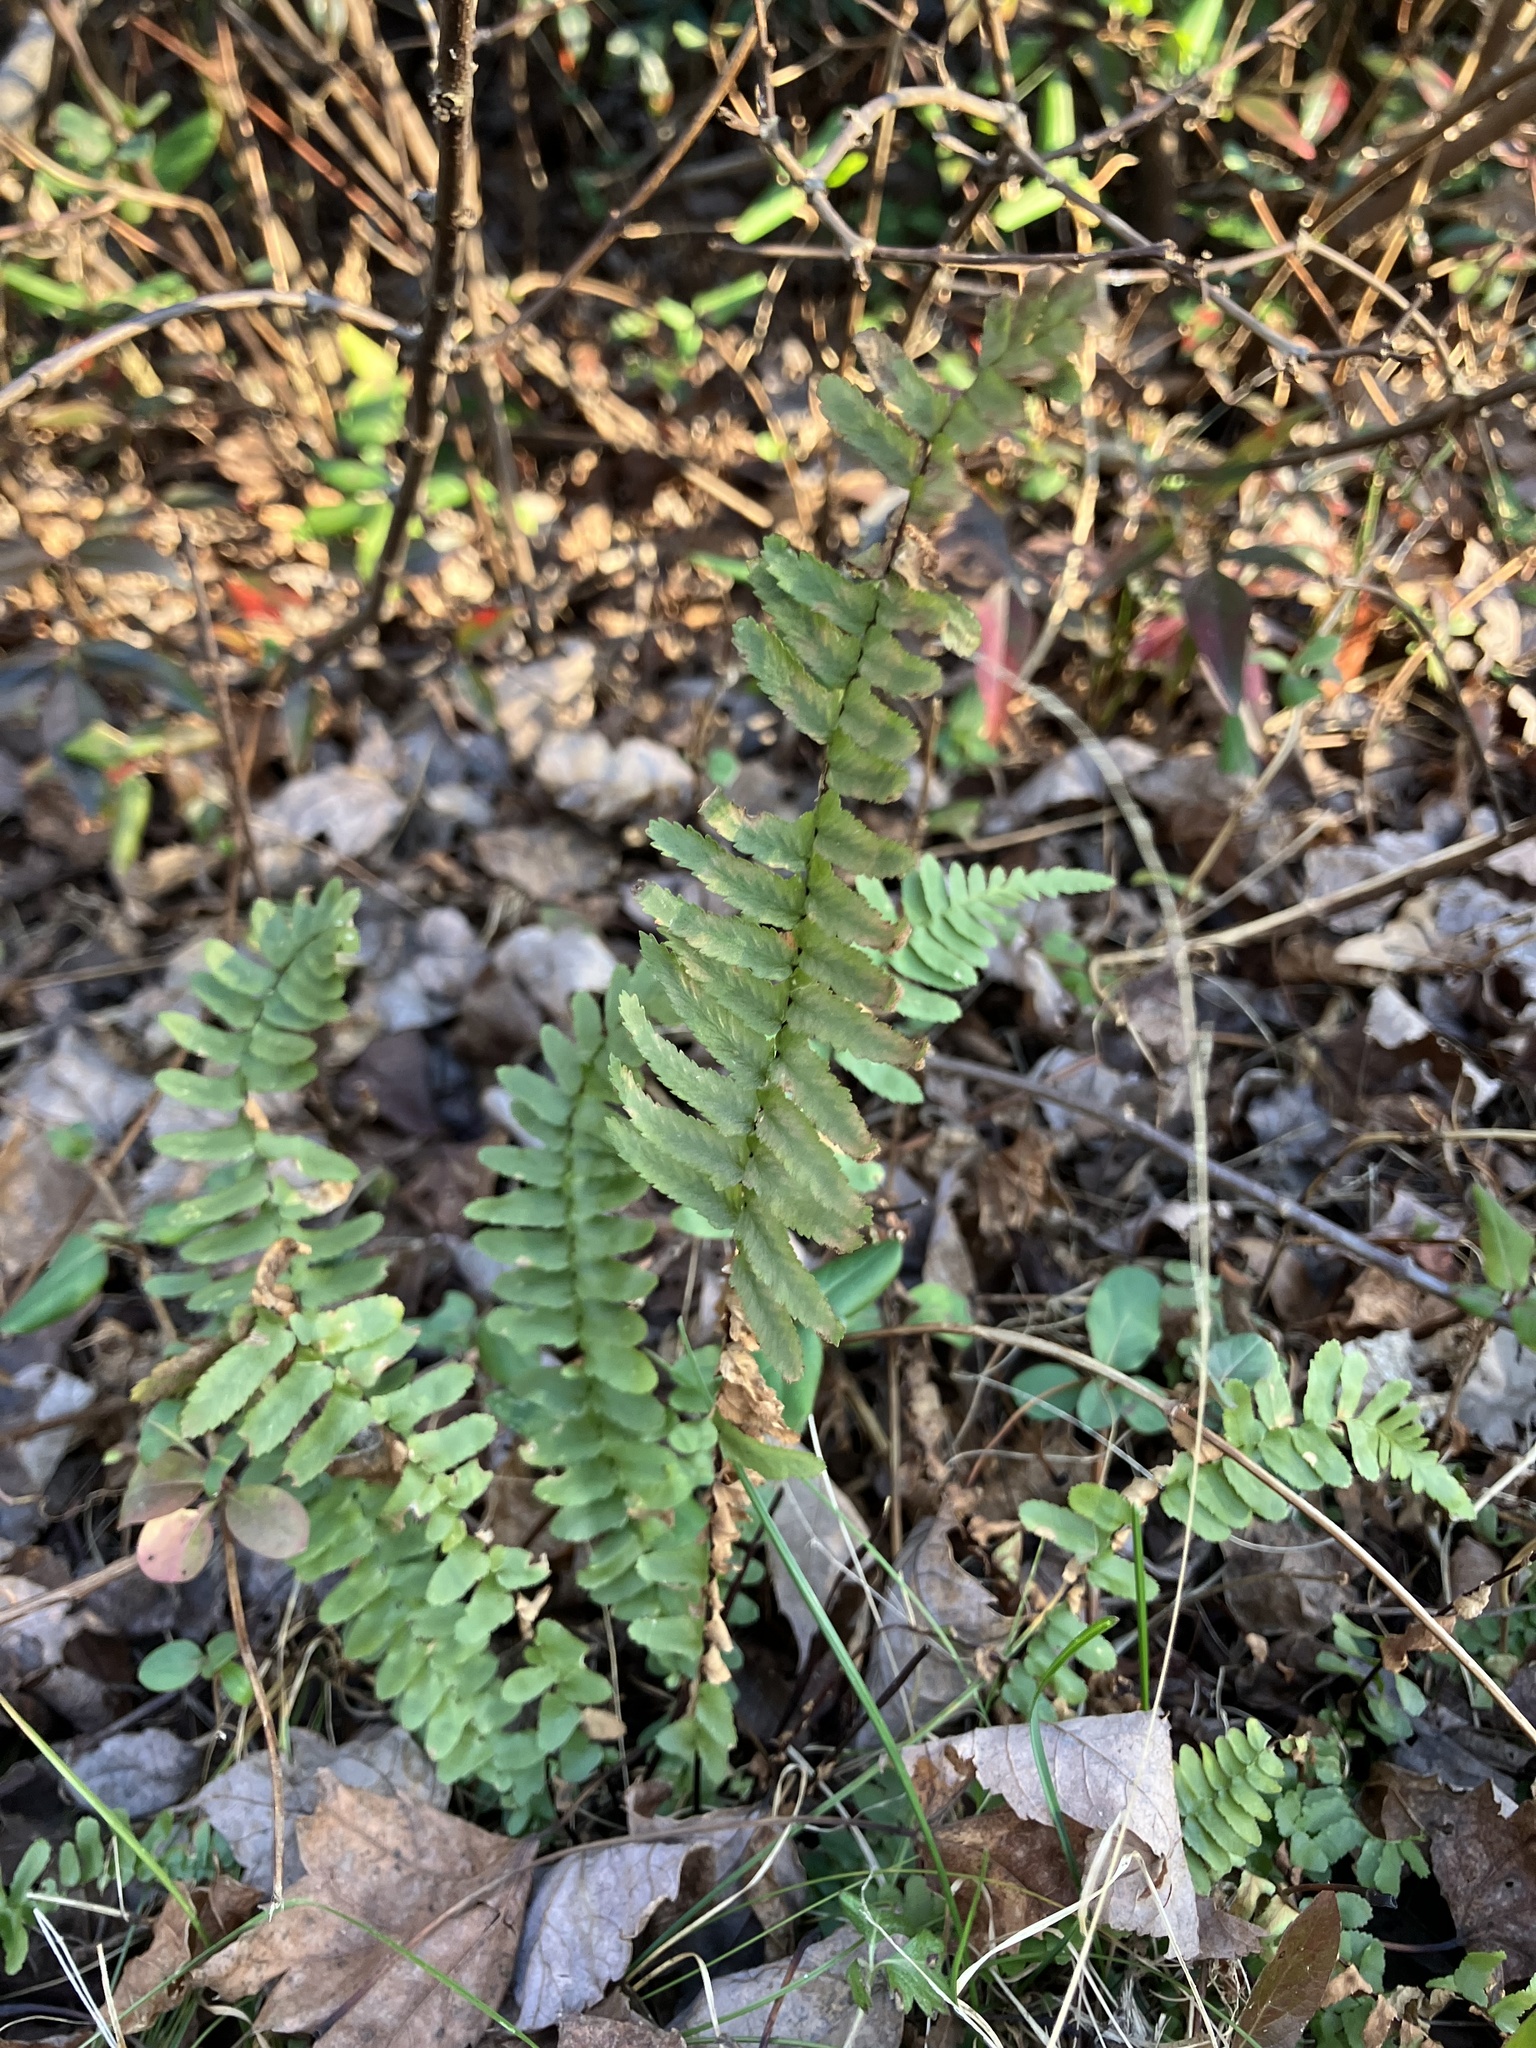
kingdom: Plantae
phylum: Tracheophyta
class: Polypodiopsida
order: Polypodiales
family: Aspleniaceae
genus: Asplenium
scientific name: Asplenium platyneuron
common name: Ebony spleenwort
